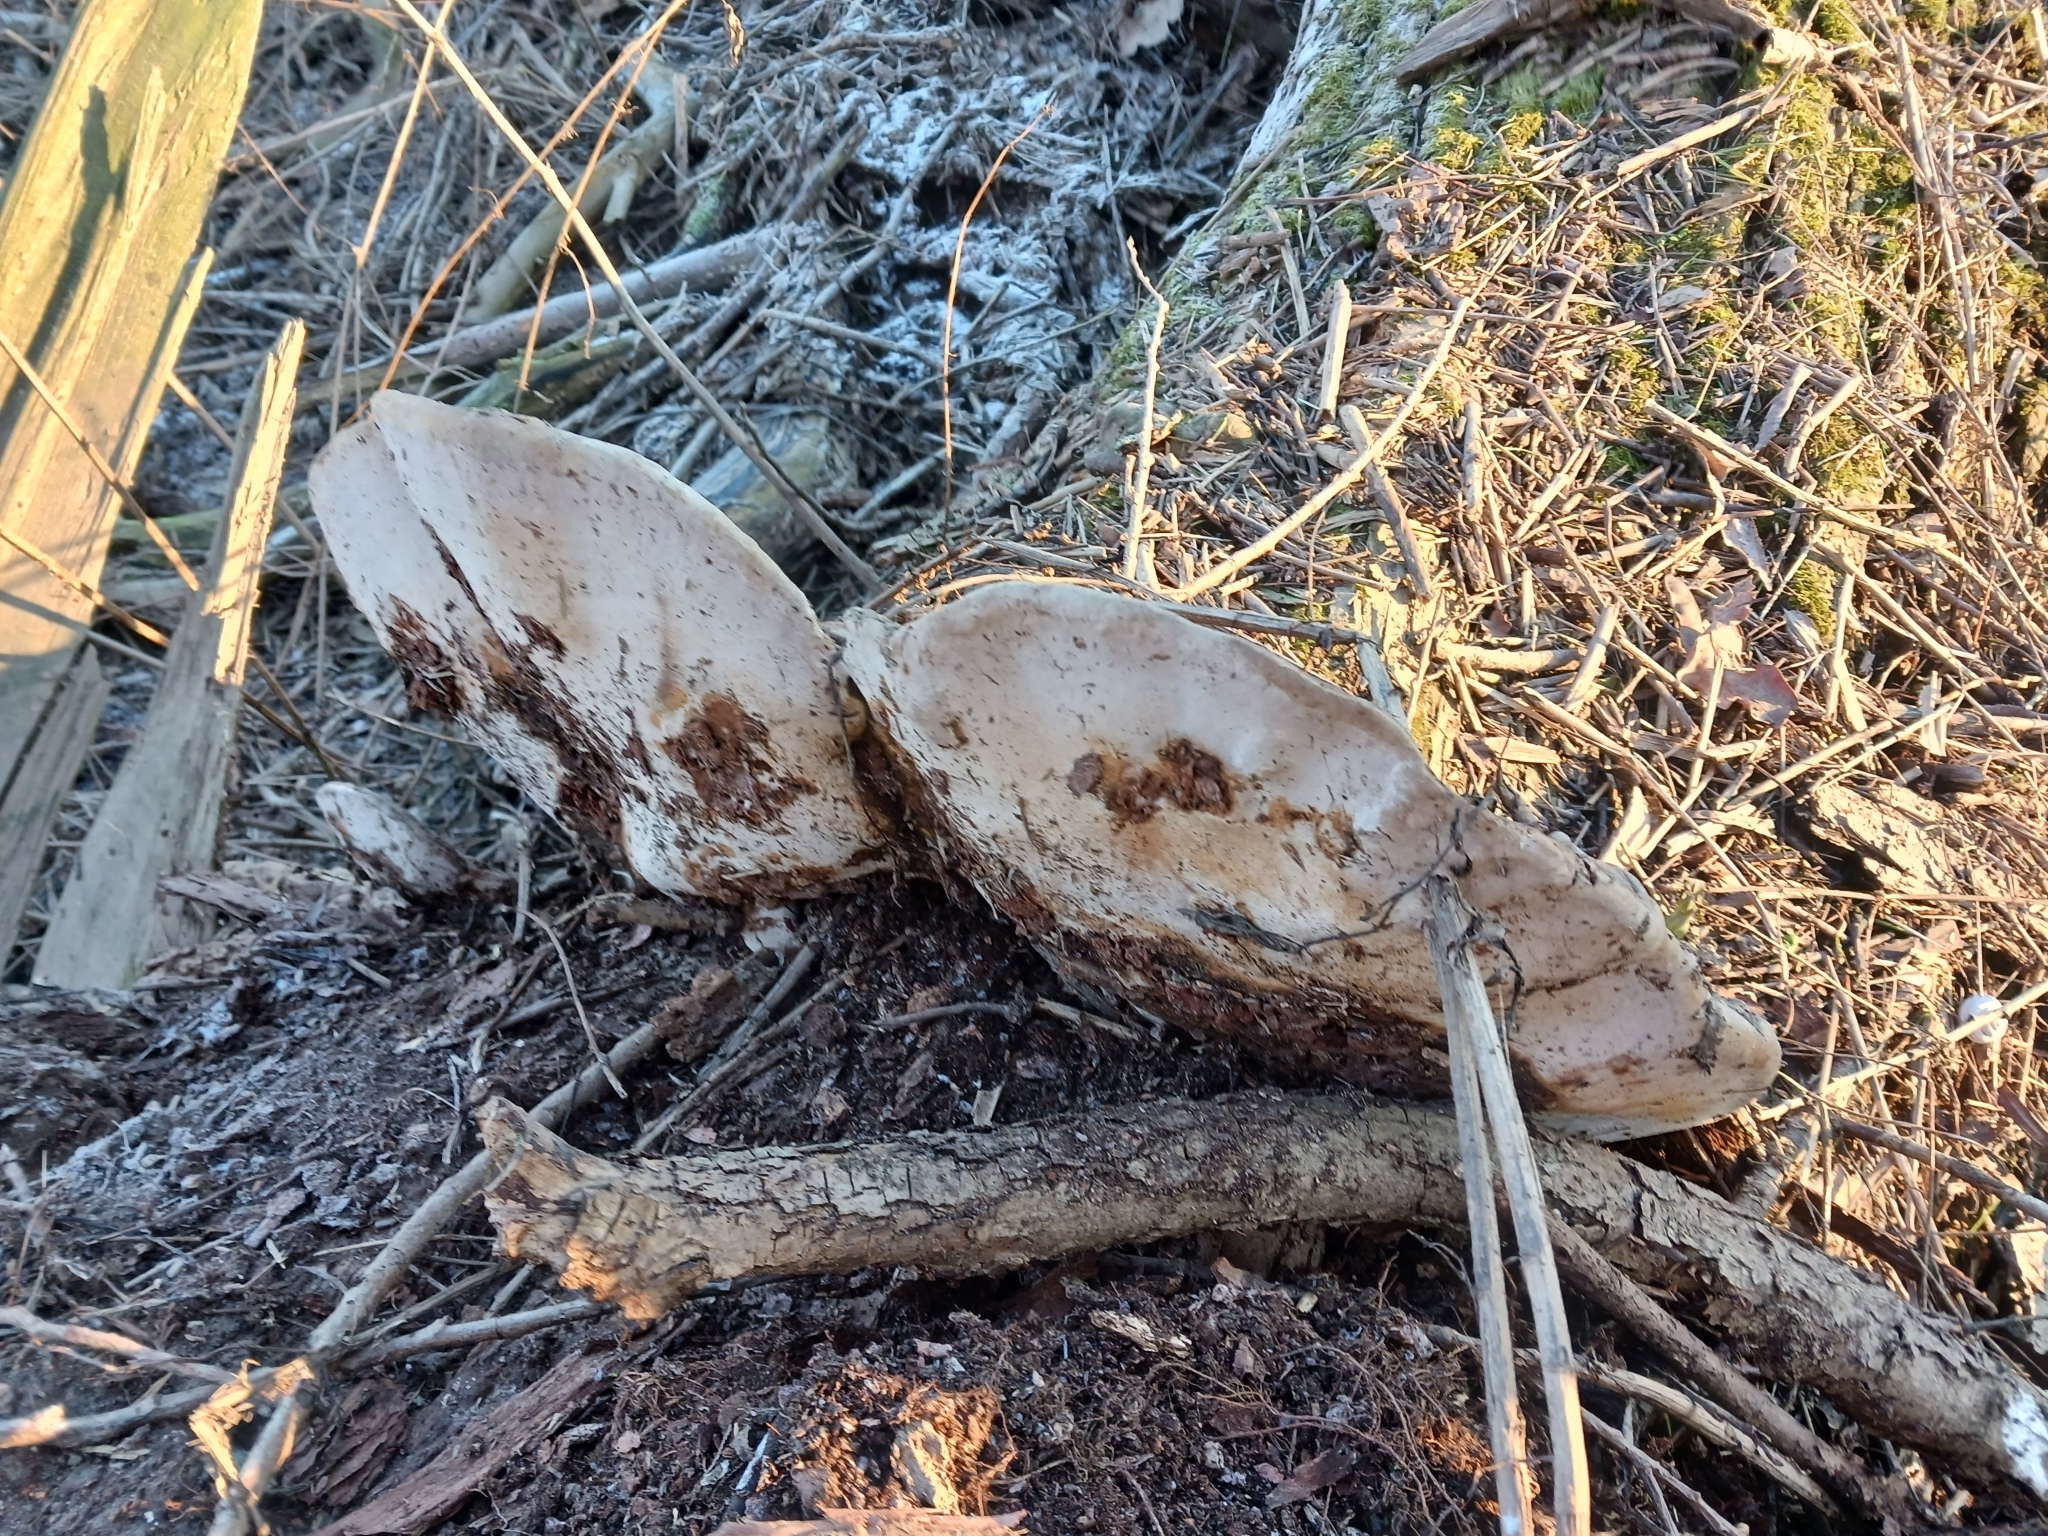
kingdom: Fungi
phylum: Basidiomycota
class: Agaricomycetes
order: Polyporales
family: Polyporaceae
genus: Ganoderma
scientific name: Ganoderma applanatum
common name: Artist's bracket
